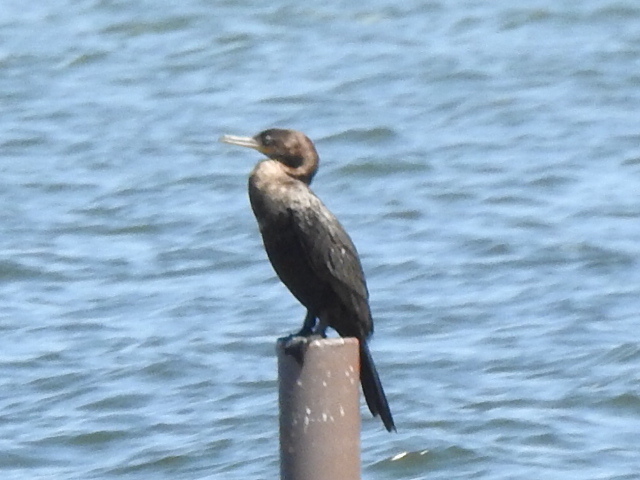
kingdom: Animalia
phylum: Chordata
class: Aves
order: Suliformes
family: Phalacrocoracidae
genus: Phalacrocorax
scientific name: Phalacrocorax brasilianus
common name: Neotropic cormorant
